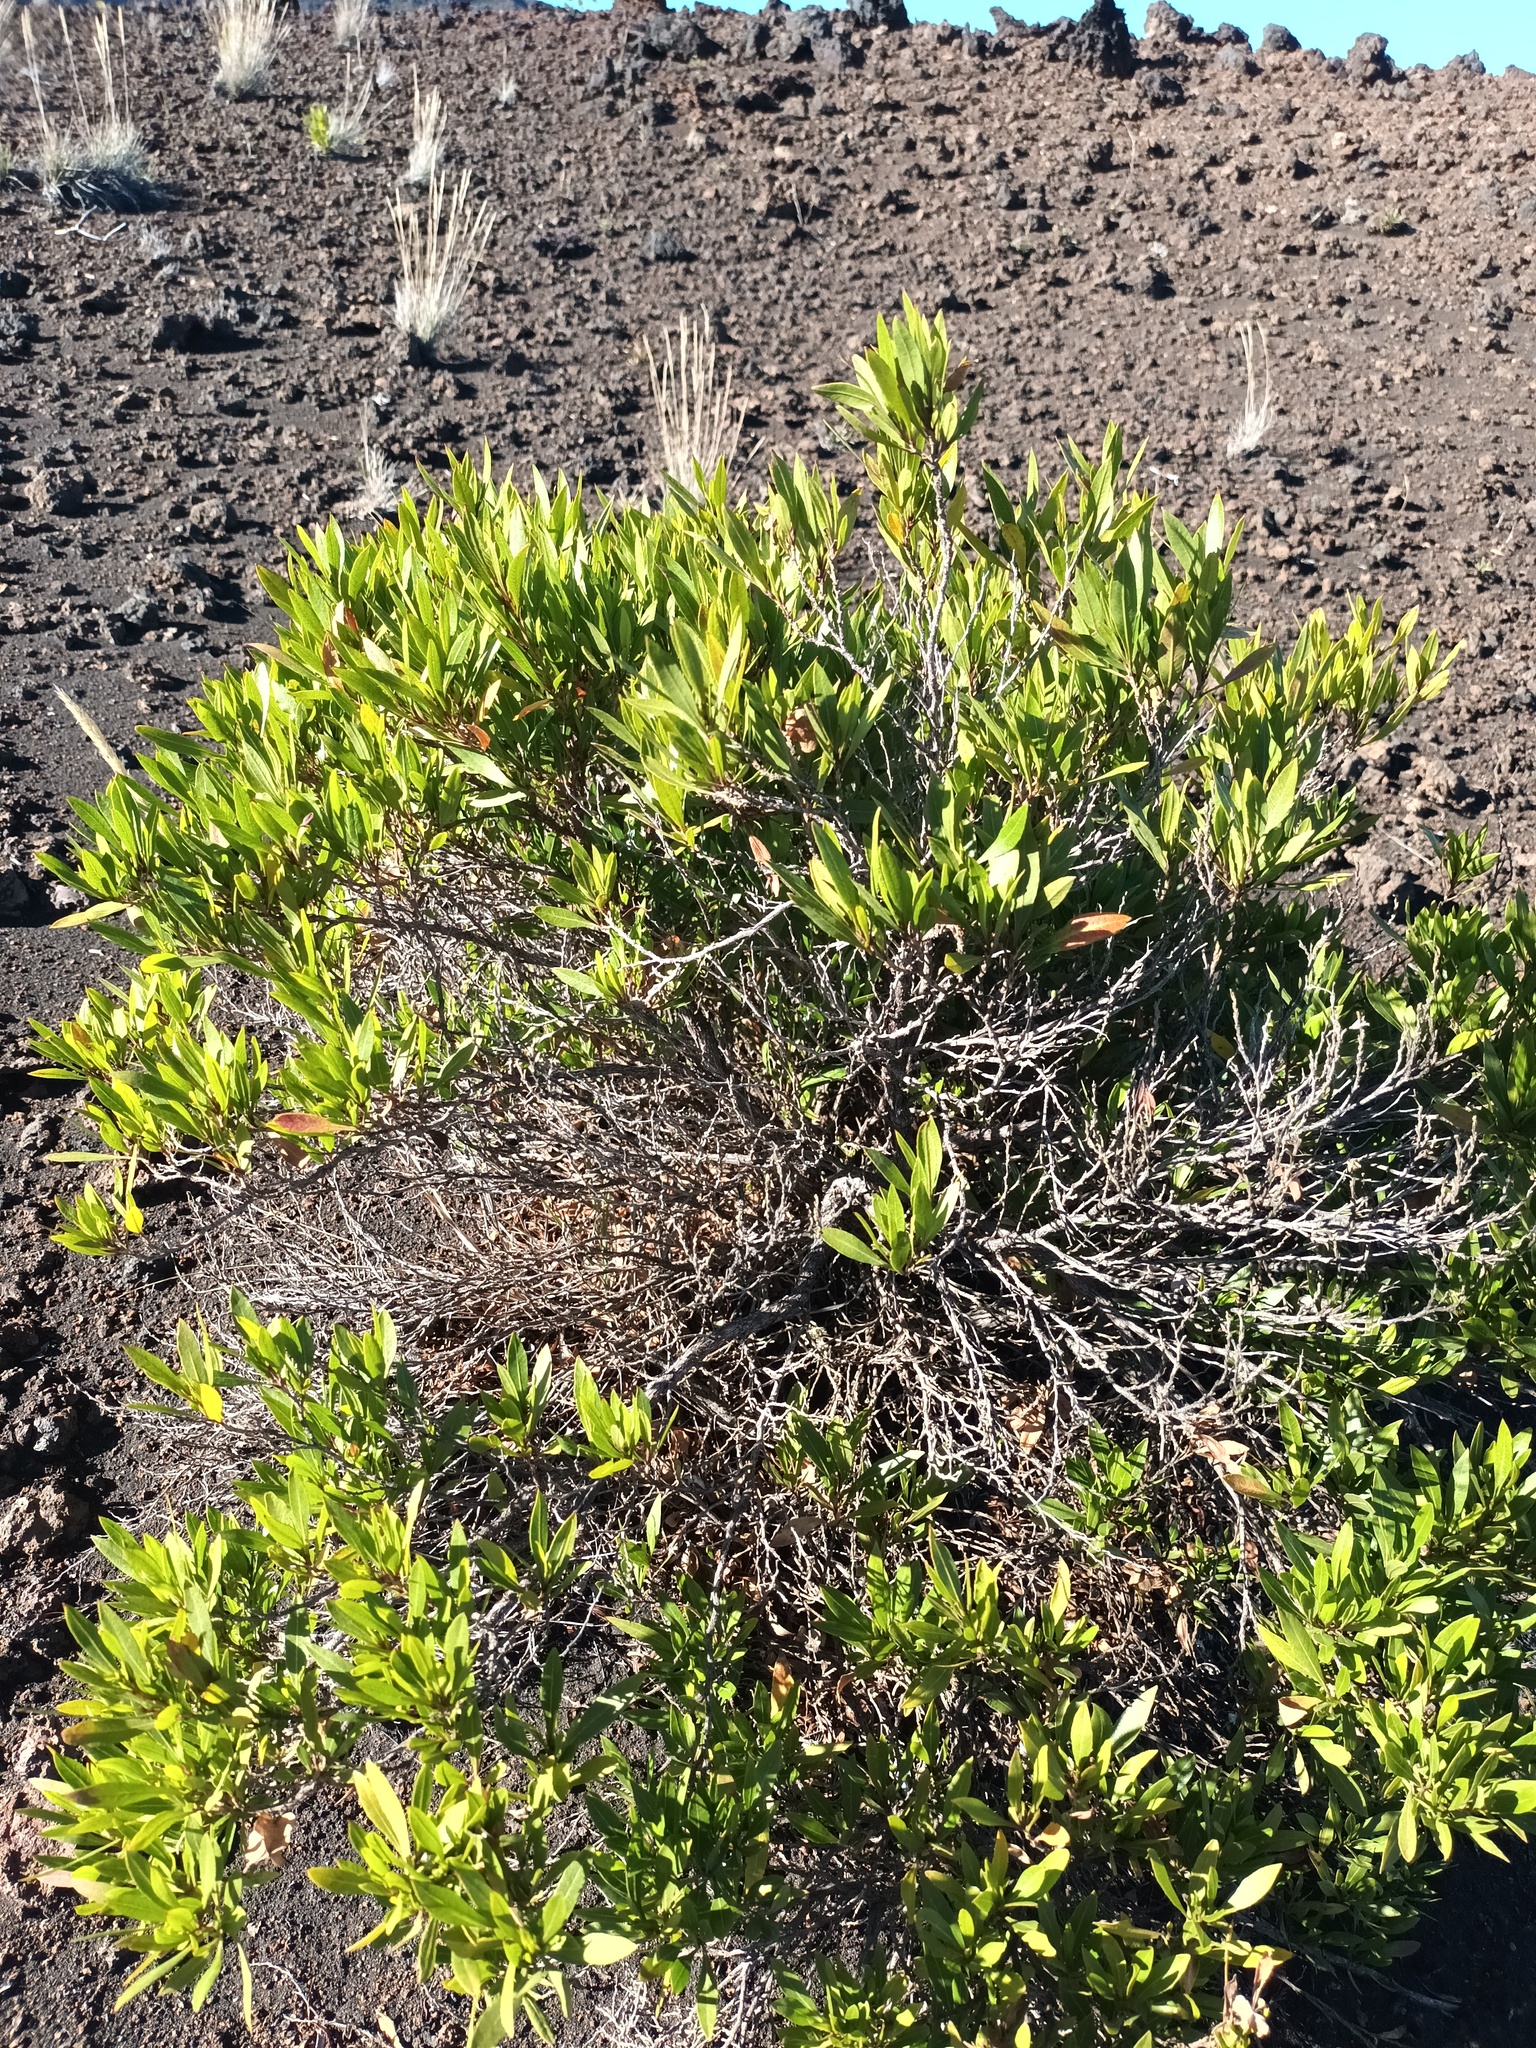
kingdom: Plantae
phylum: Tracheophyta
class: Magnoliopsida
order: Sapindales
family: Sapindaceae
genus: Dodonaea
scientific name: Dodonaea viscosa
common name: Hopbush
